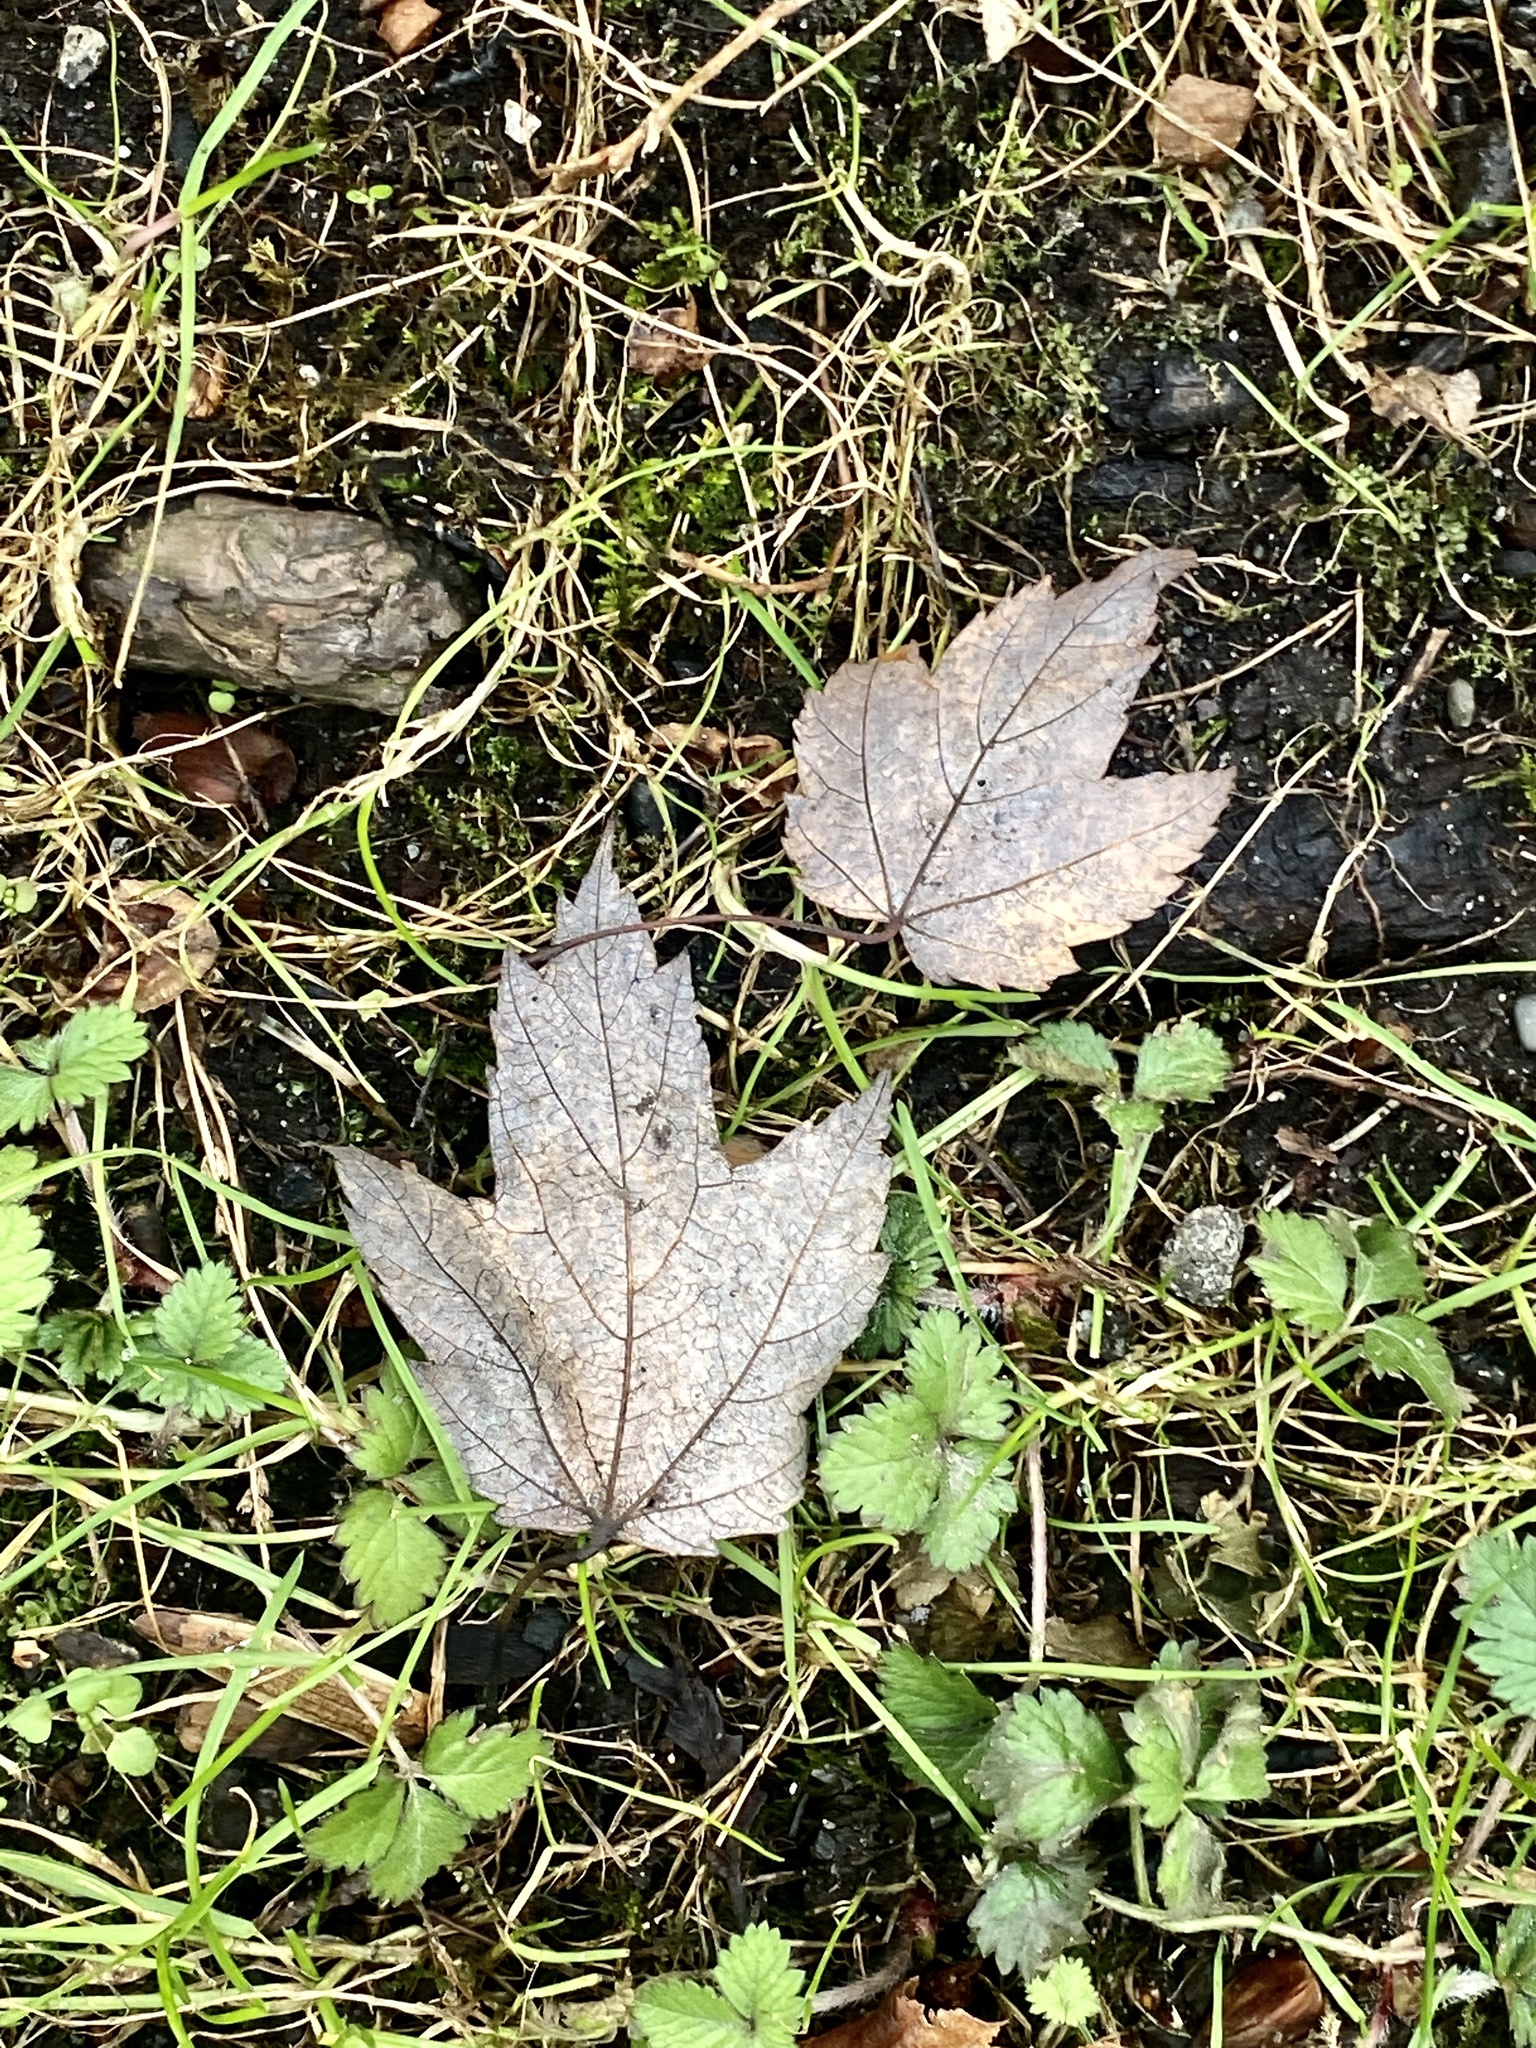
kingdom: Plantae
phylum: Tracheophyta
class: Magnoliopsida
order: Sapindales
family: Sapindaceae
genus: Acer
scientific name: Acer rubrum
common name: Red maple
